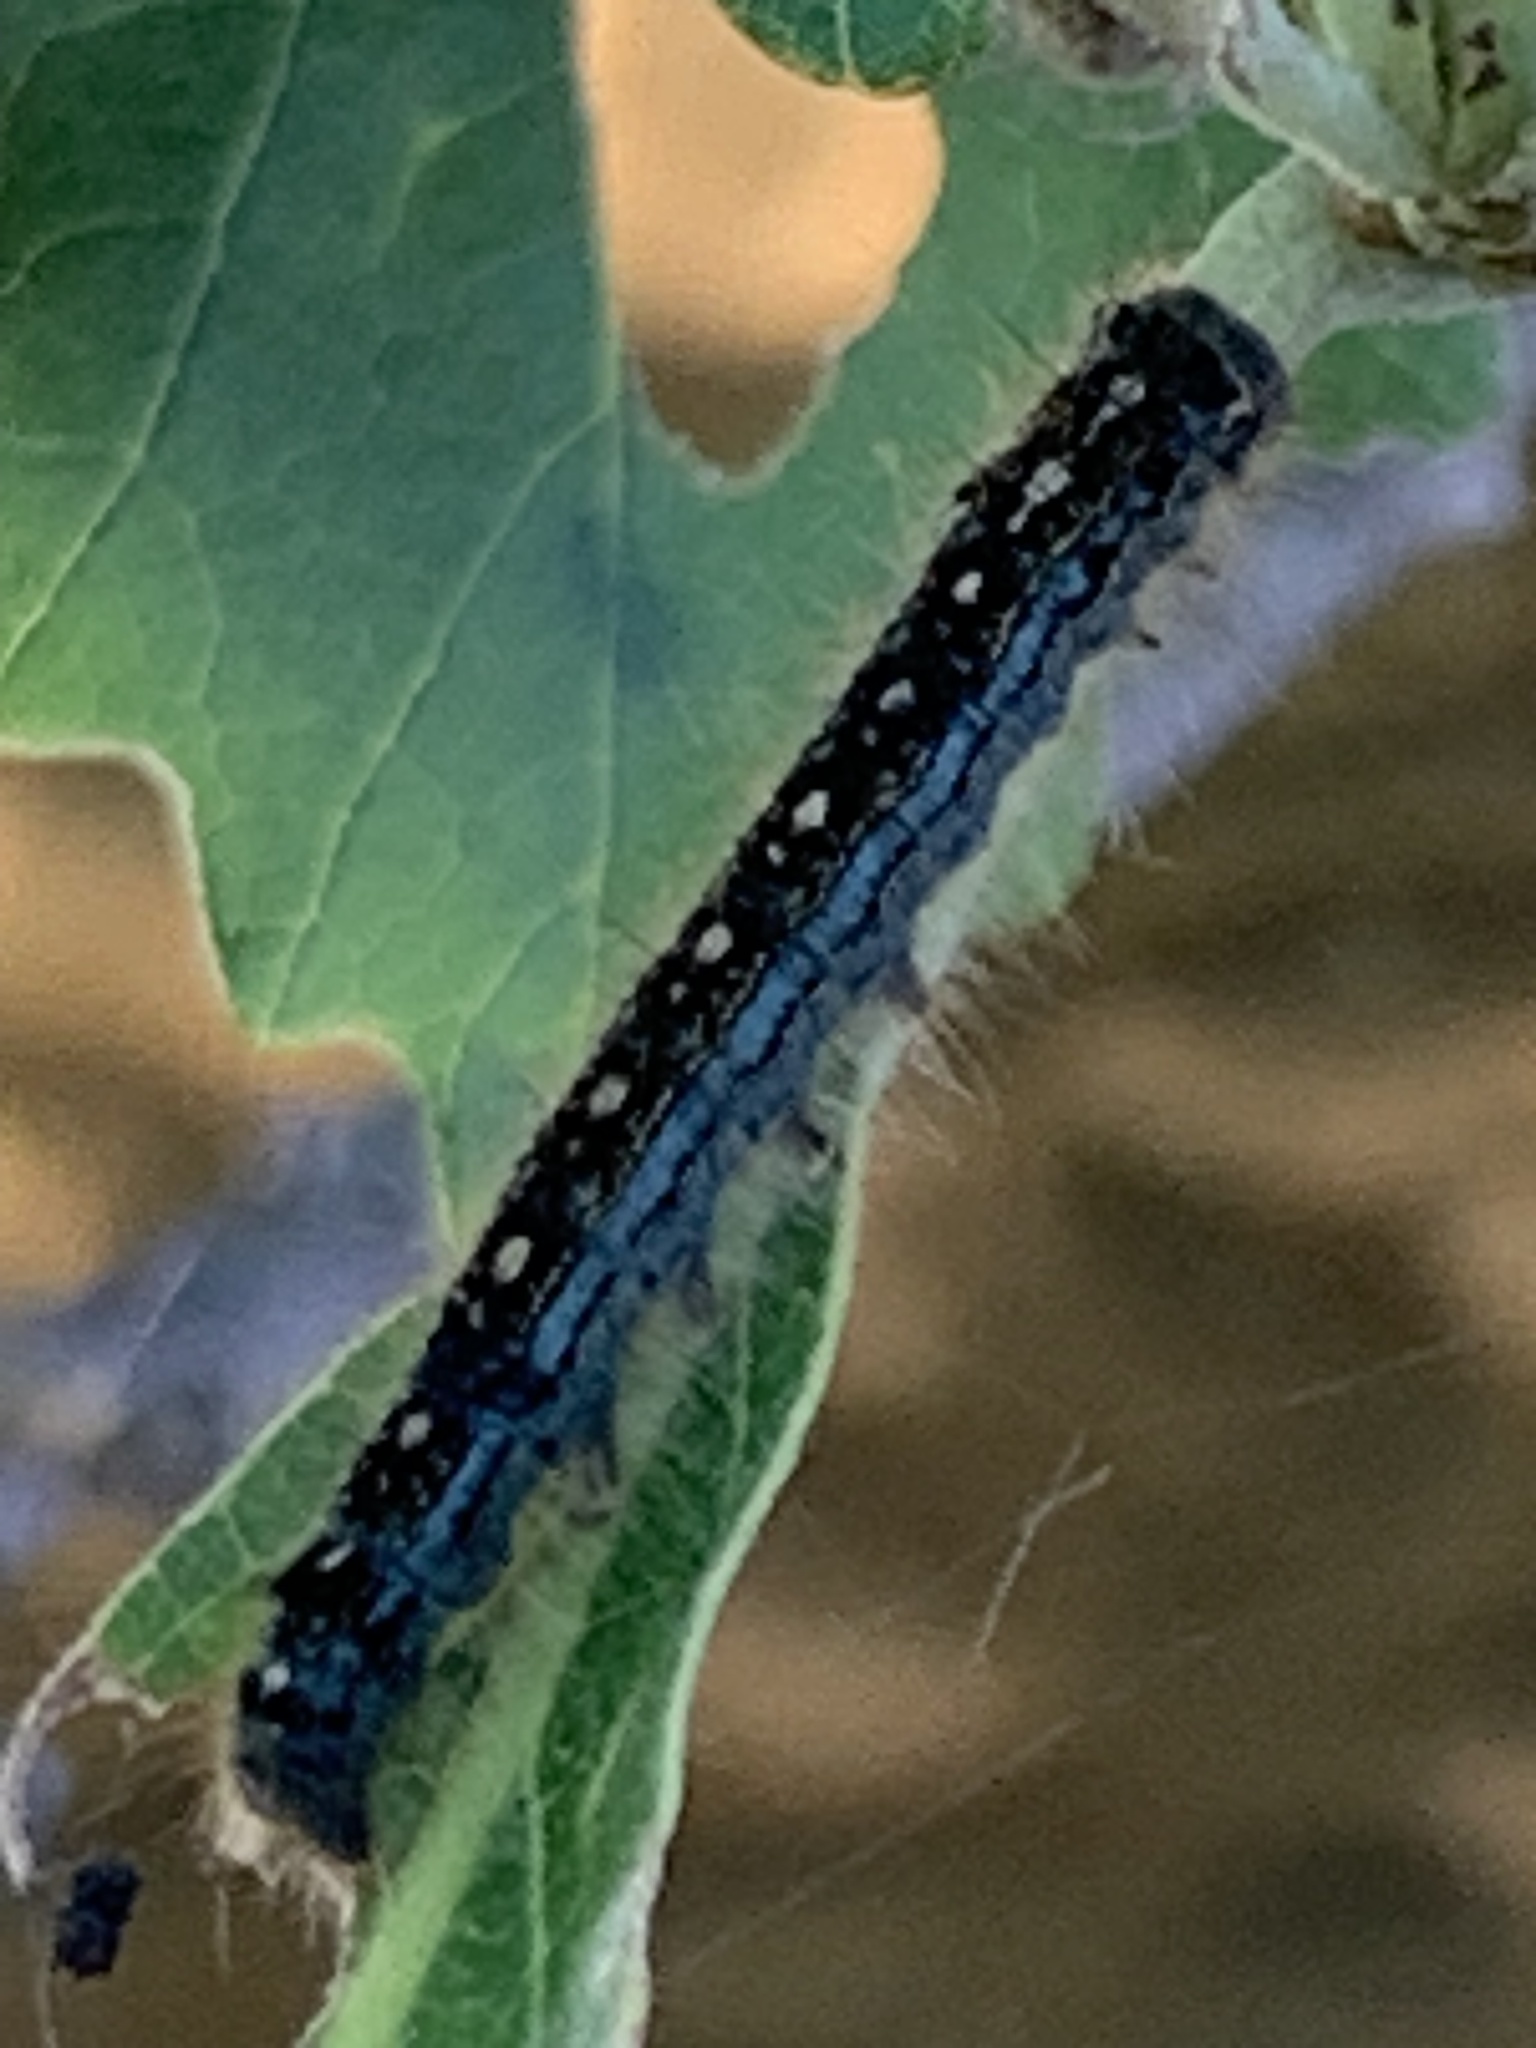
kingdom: Animalia
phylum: Arthropoda
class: Insecta
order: Lepidoptera
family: Lasiocampidae
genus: Malacosoma
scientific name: Malacosoma disstria
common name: Forest tent caterpillar
